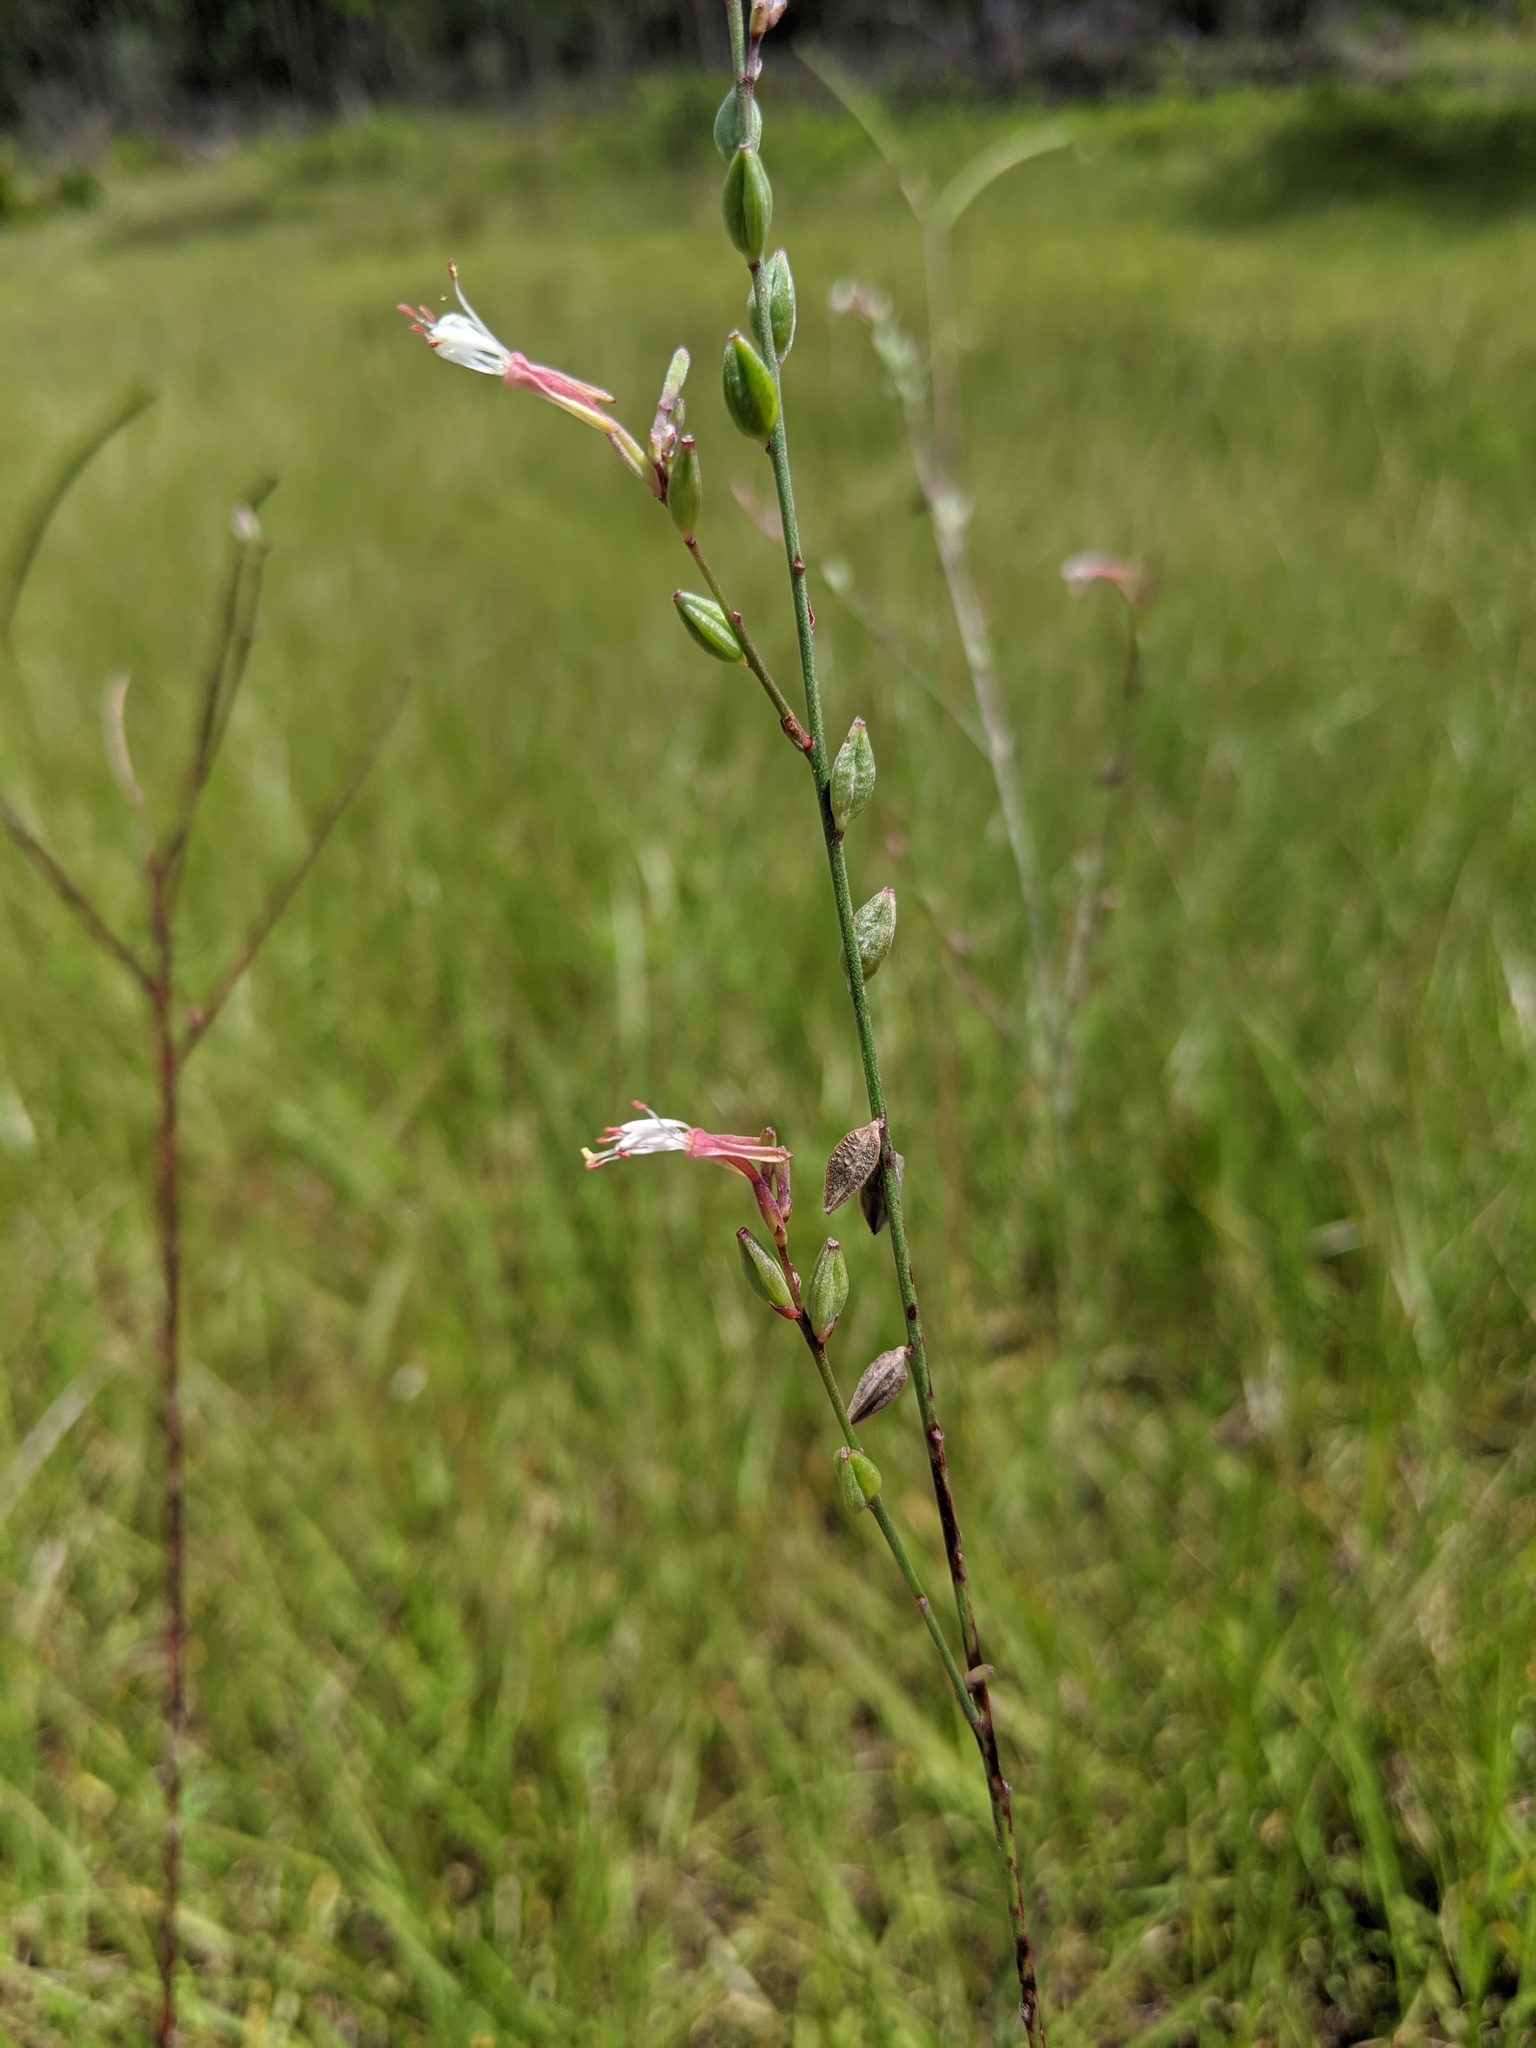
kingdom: Plantae
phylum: Tracheophyta
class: Magnoliopsida
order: Myrtales
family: Onagraceae
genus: Oenothera
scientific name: Oenothera simulans
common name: Southern beeblossom
